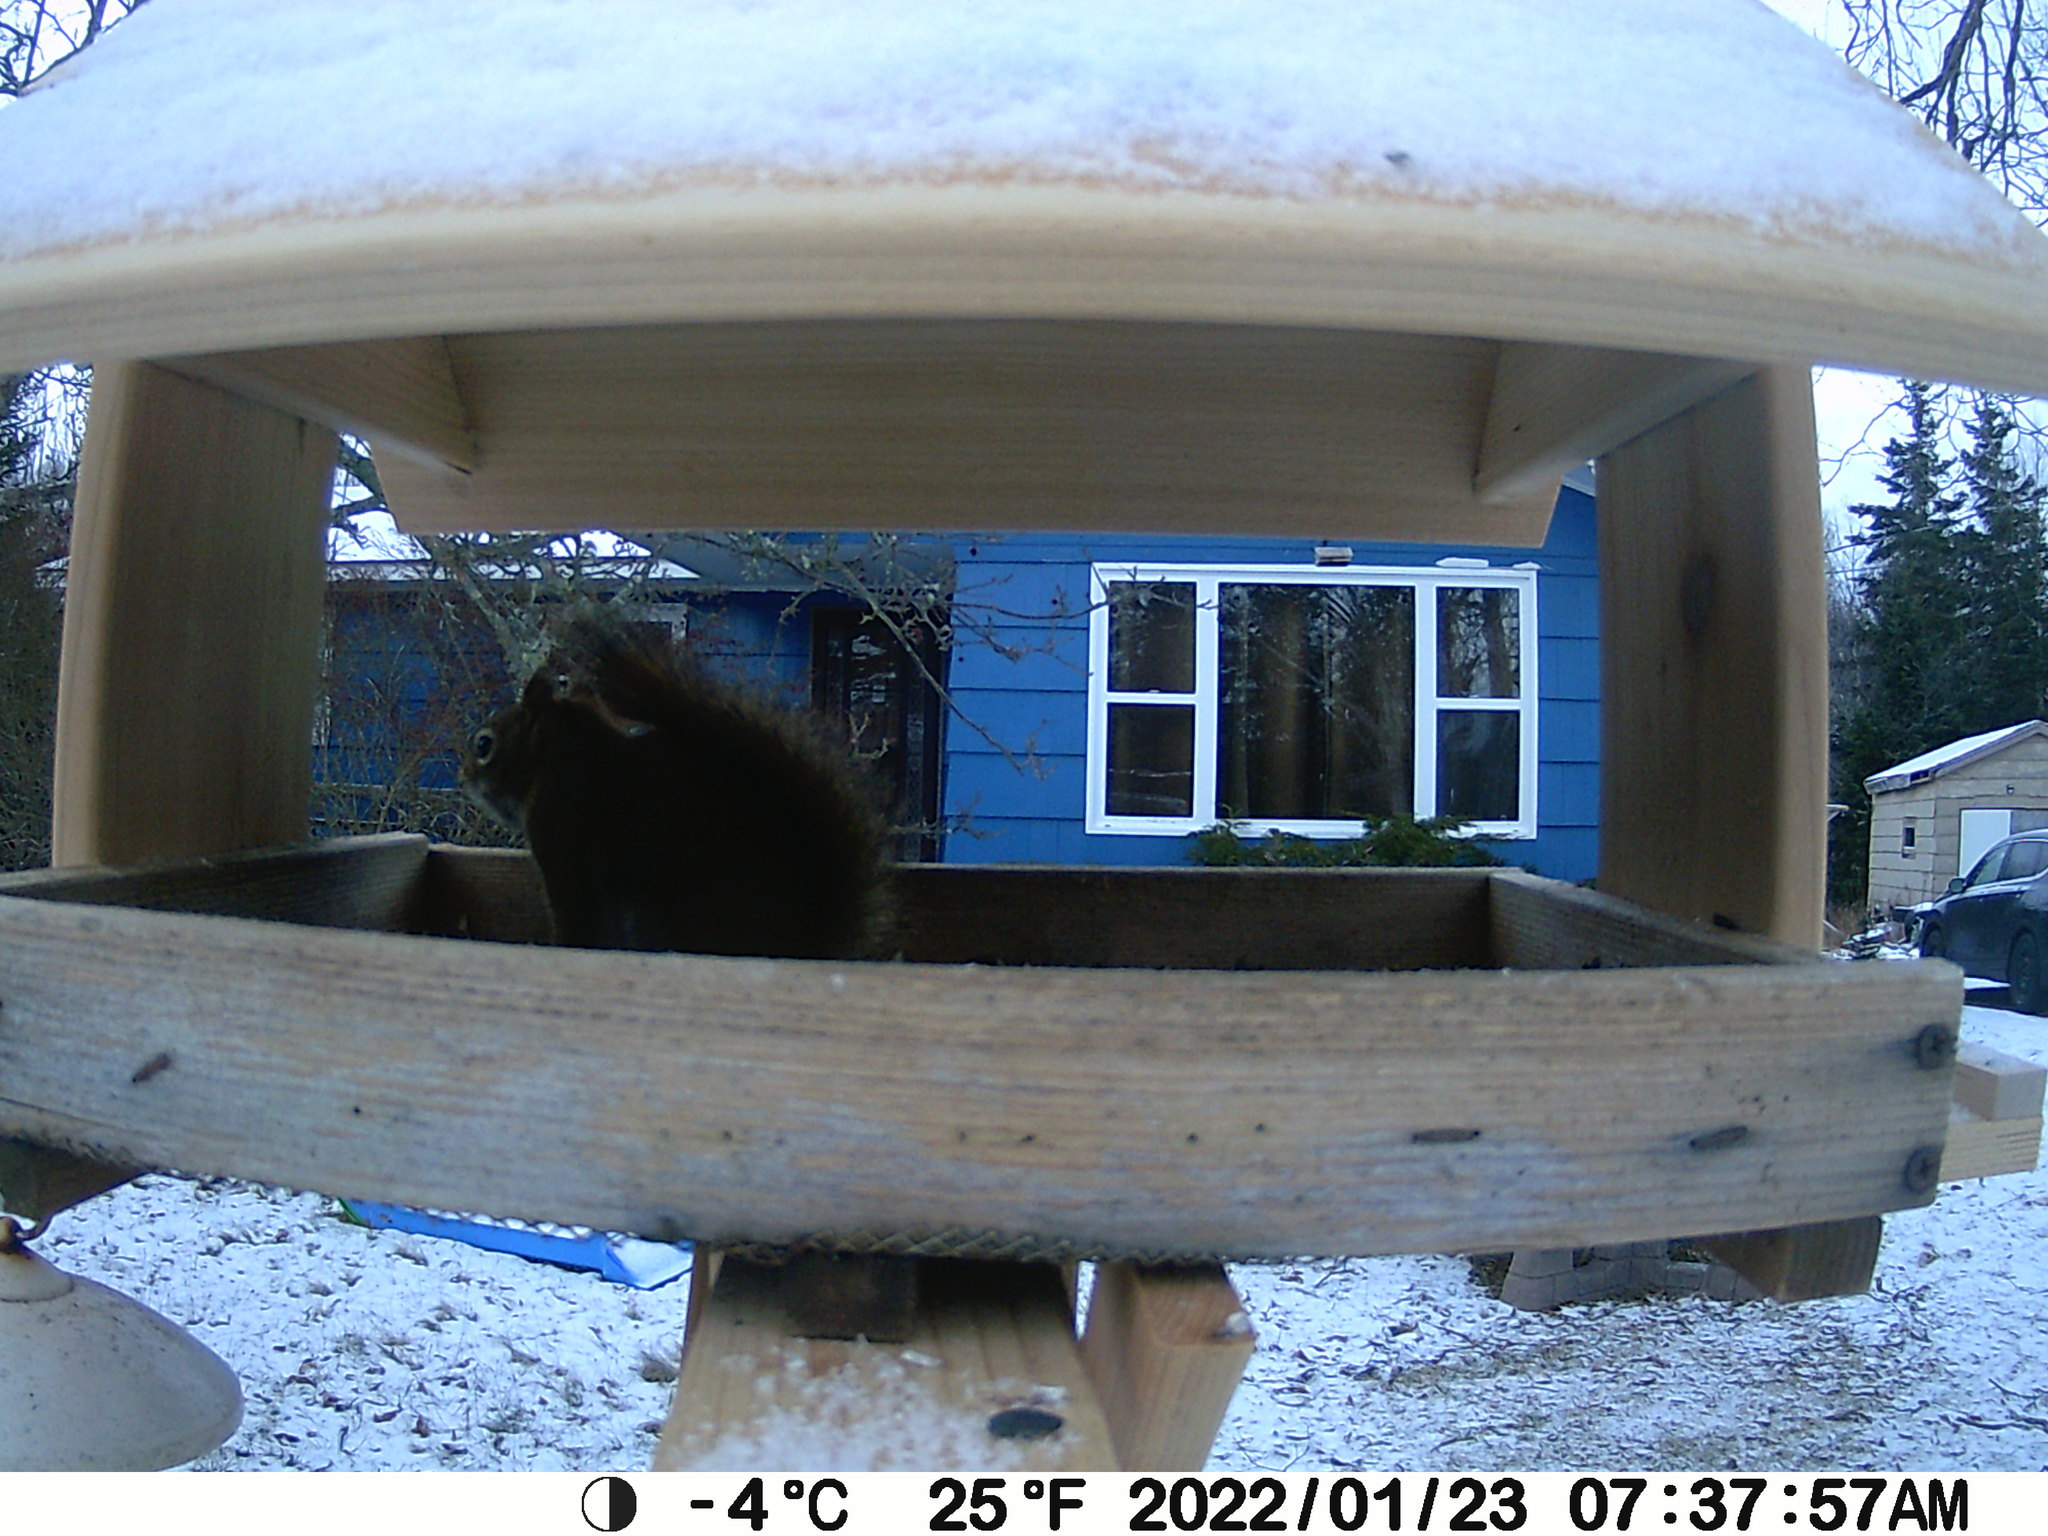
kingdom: Animalia
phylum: Chordata
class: Mammalia
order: Rodentia
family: Sciuridae
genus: Tamiasciurus
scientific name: Tamiasciurus hudsonicus
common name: Red squirrel
